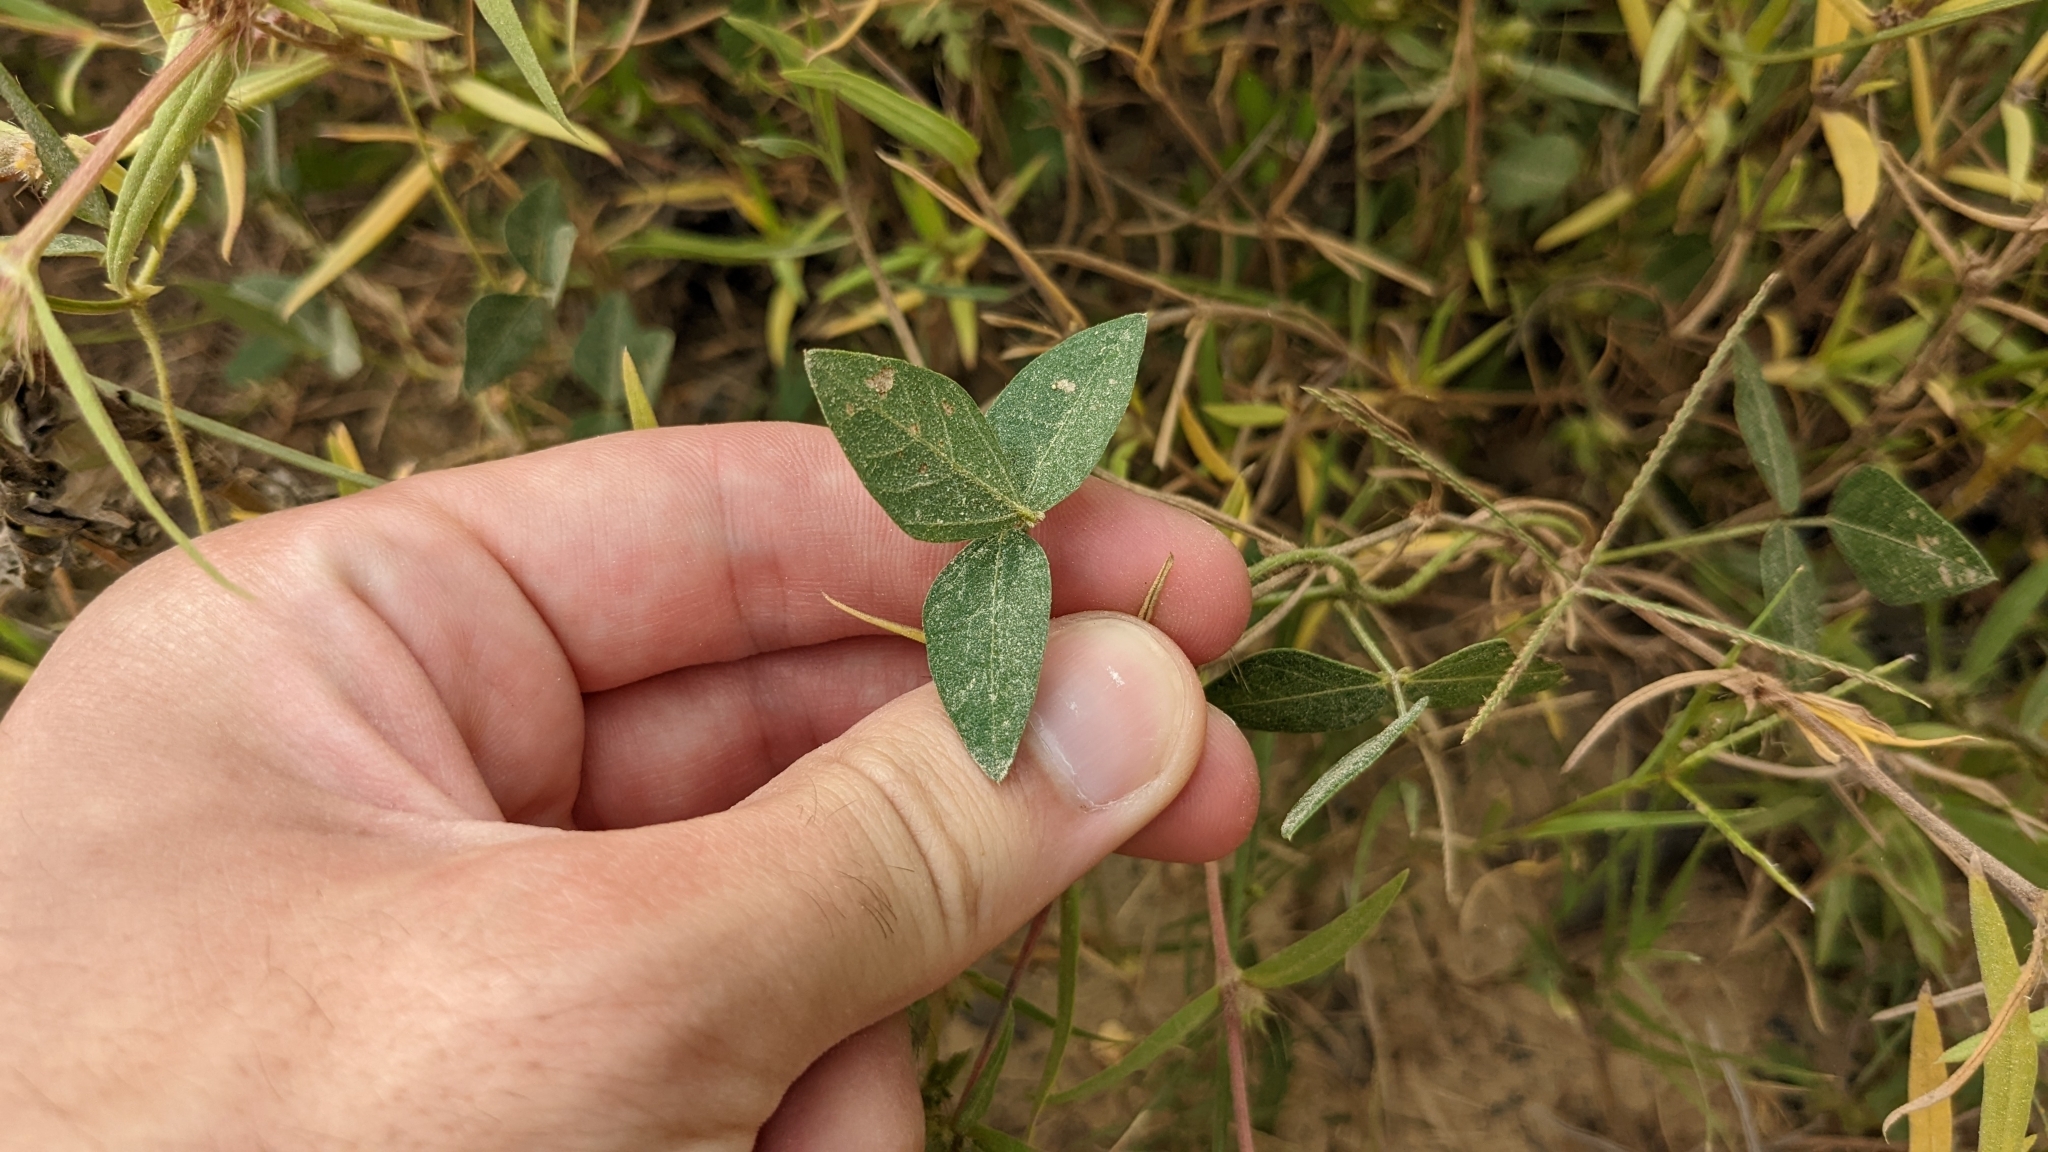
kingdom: Plantae
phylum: Tracheophyta
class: Magnoliopsida
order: Fabales
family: Fabaceae
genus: Strophostyles
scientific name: Strophostyles umbellata
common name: Perennial wild bean
